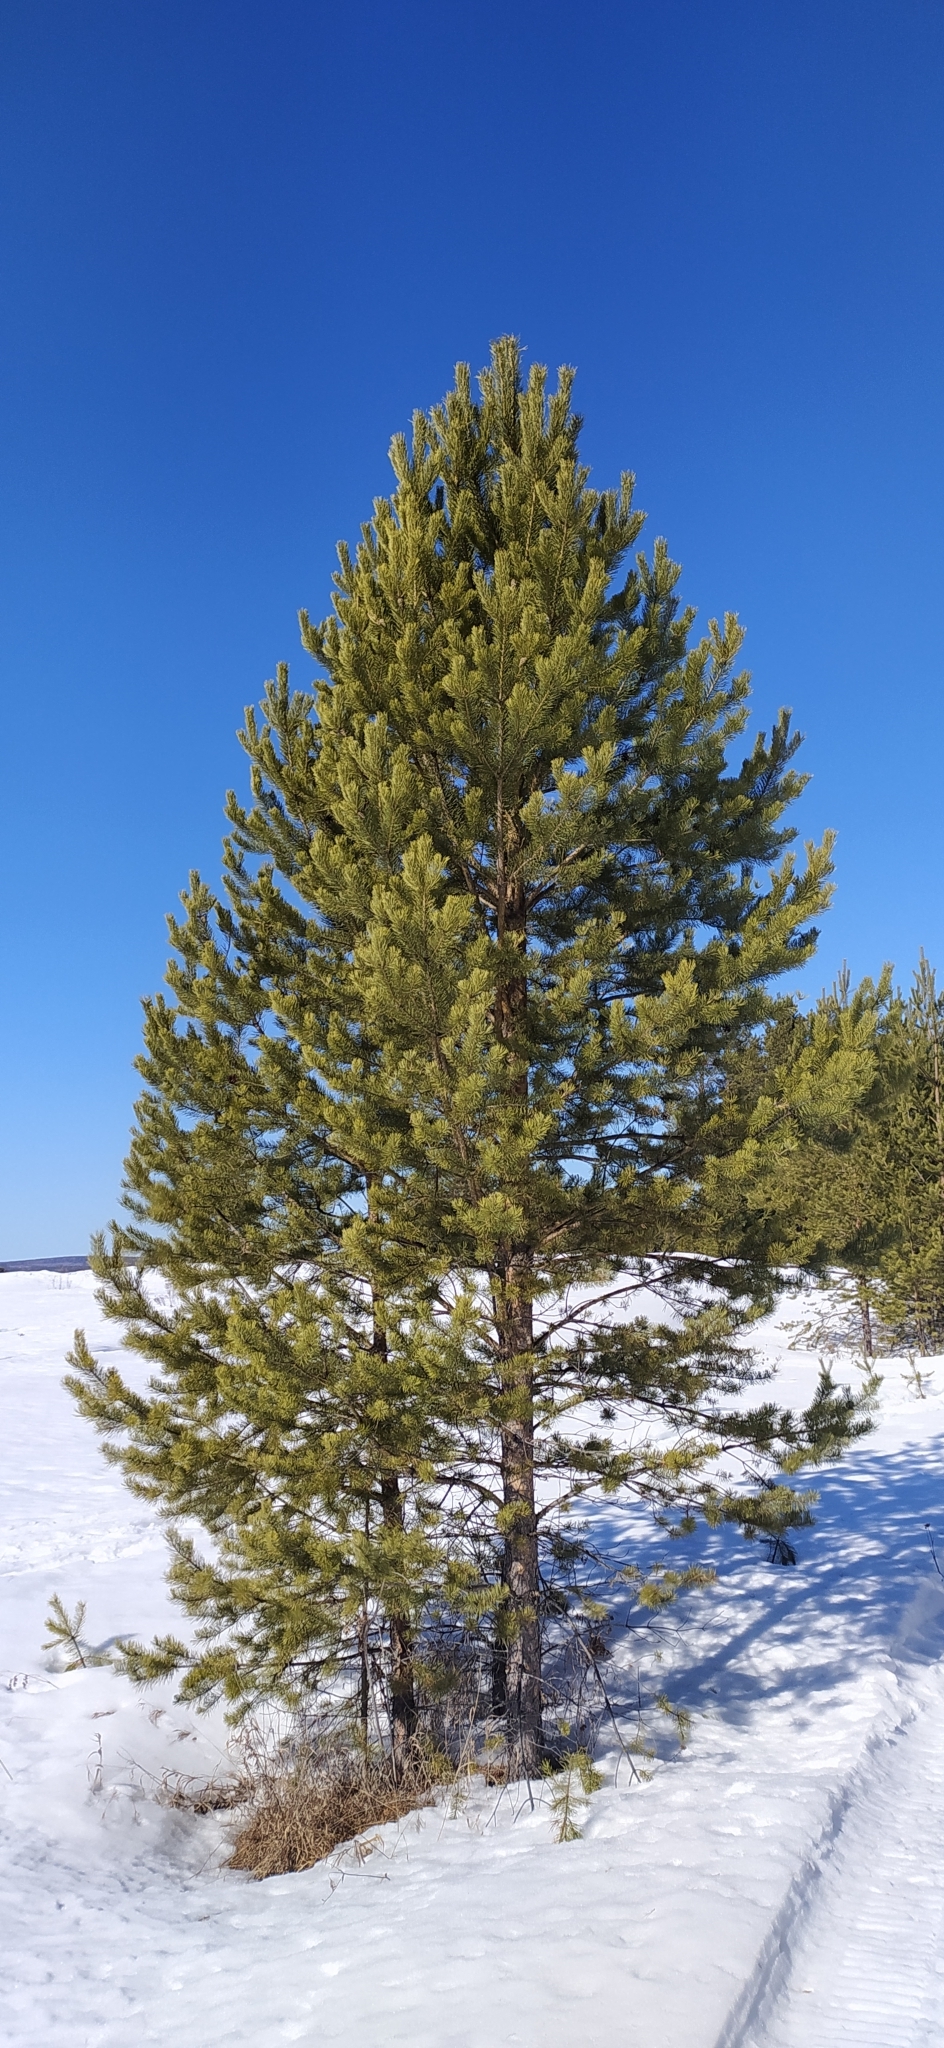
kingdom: Plantae
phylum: Tracheophyta
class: Pinopsida
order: Pinales
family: Pinaceae
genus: Pinus
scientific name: Pinus sylvestris
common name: Scots pine
